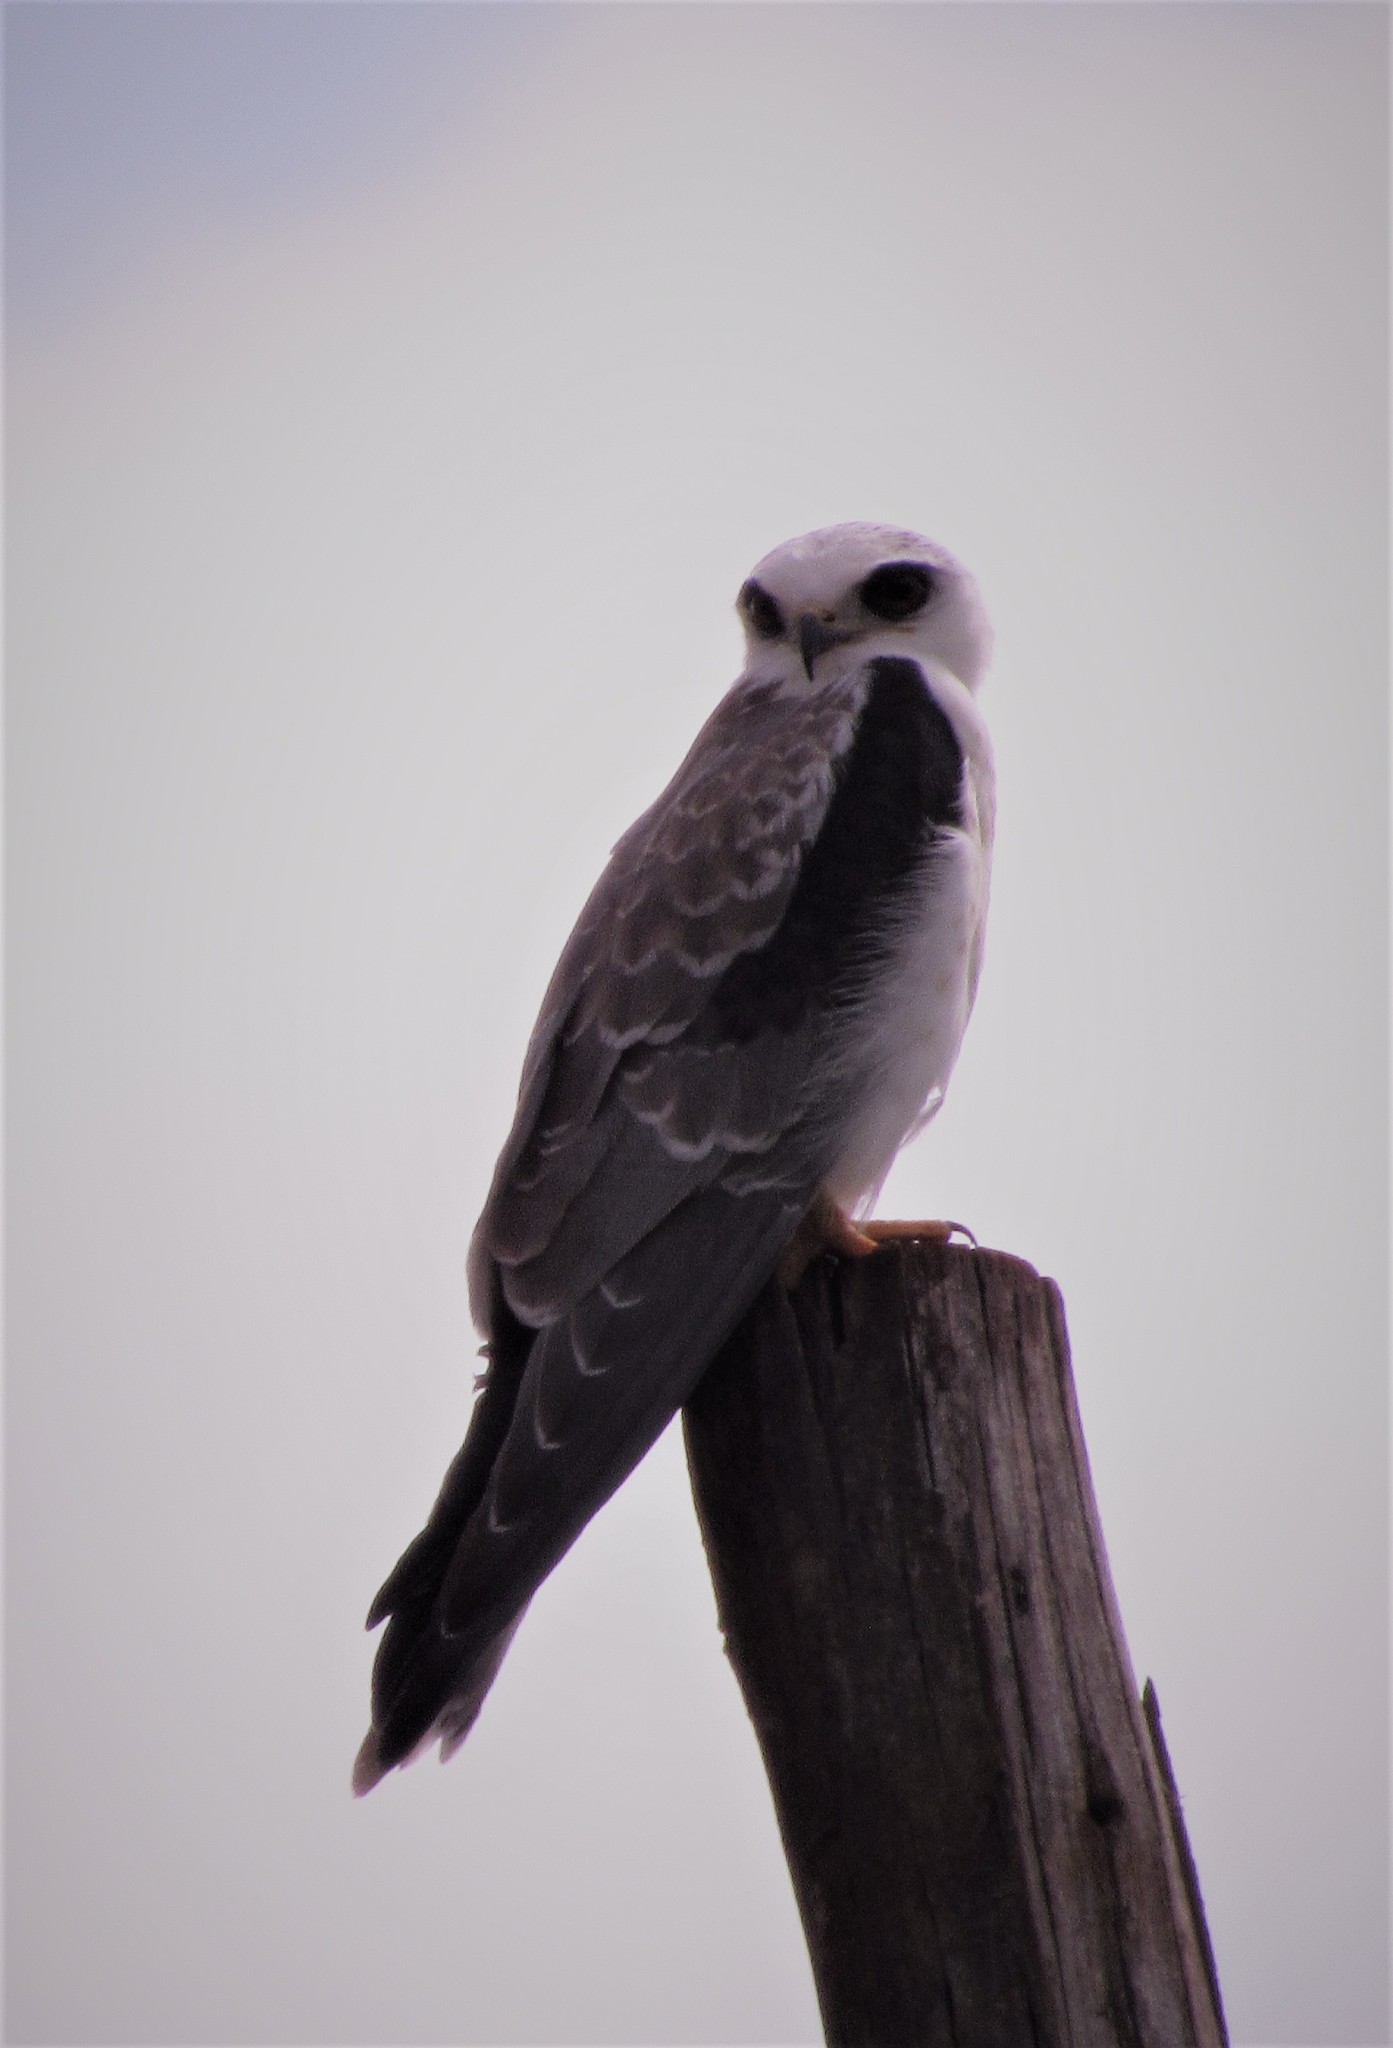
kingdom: Animalia
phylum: Chordata
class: Aves
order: Accipitriformes
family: Accipitridae
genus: Elanus
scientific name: Elanus leucurus
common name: White-tailed kite
